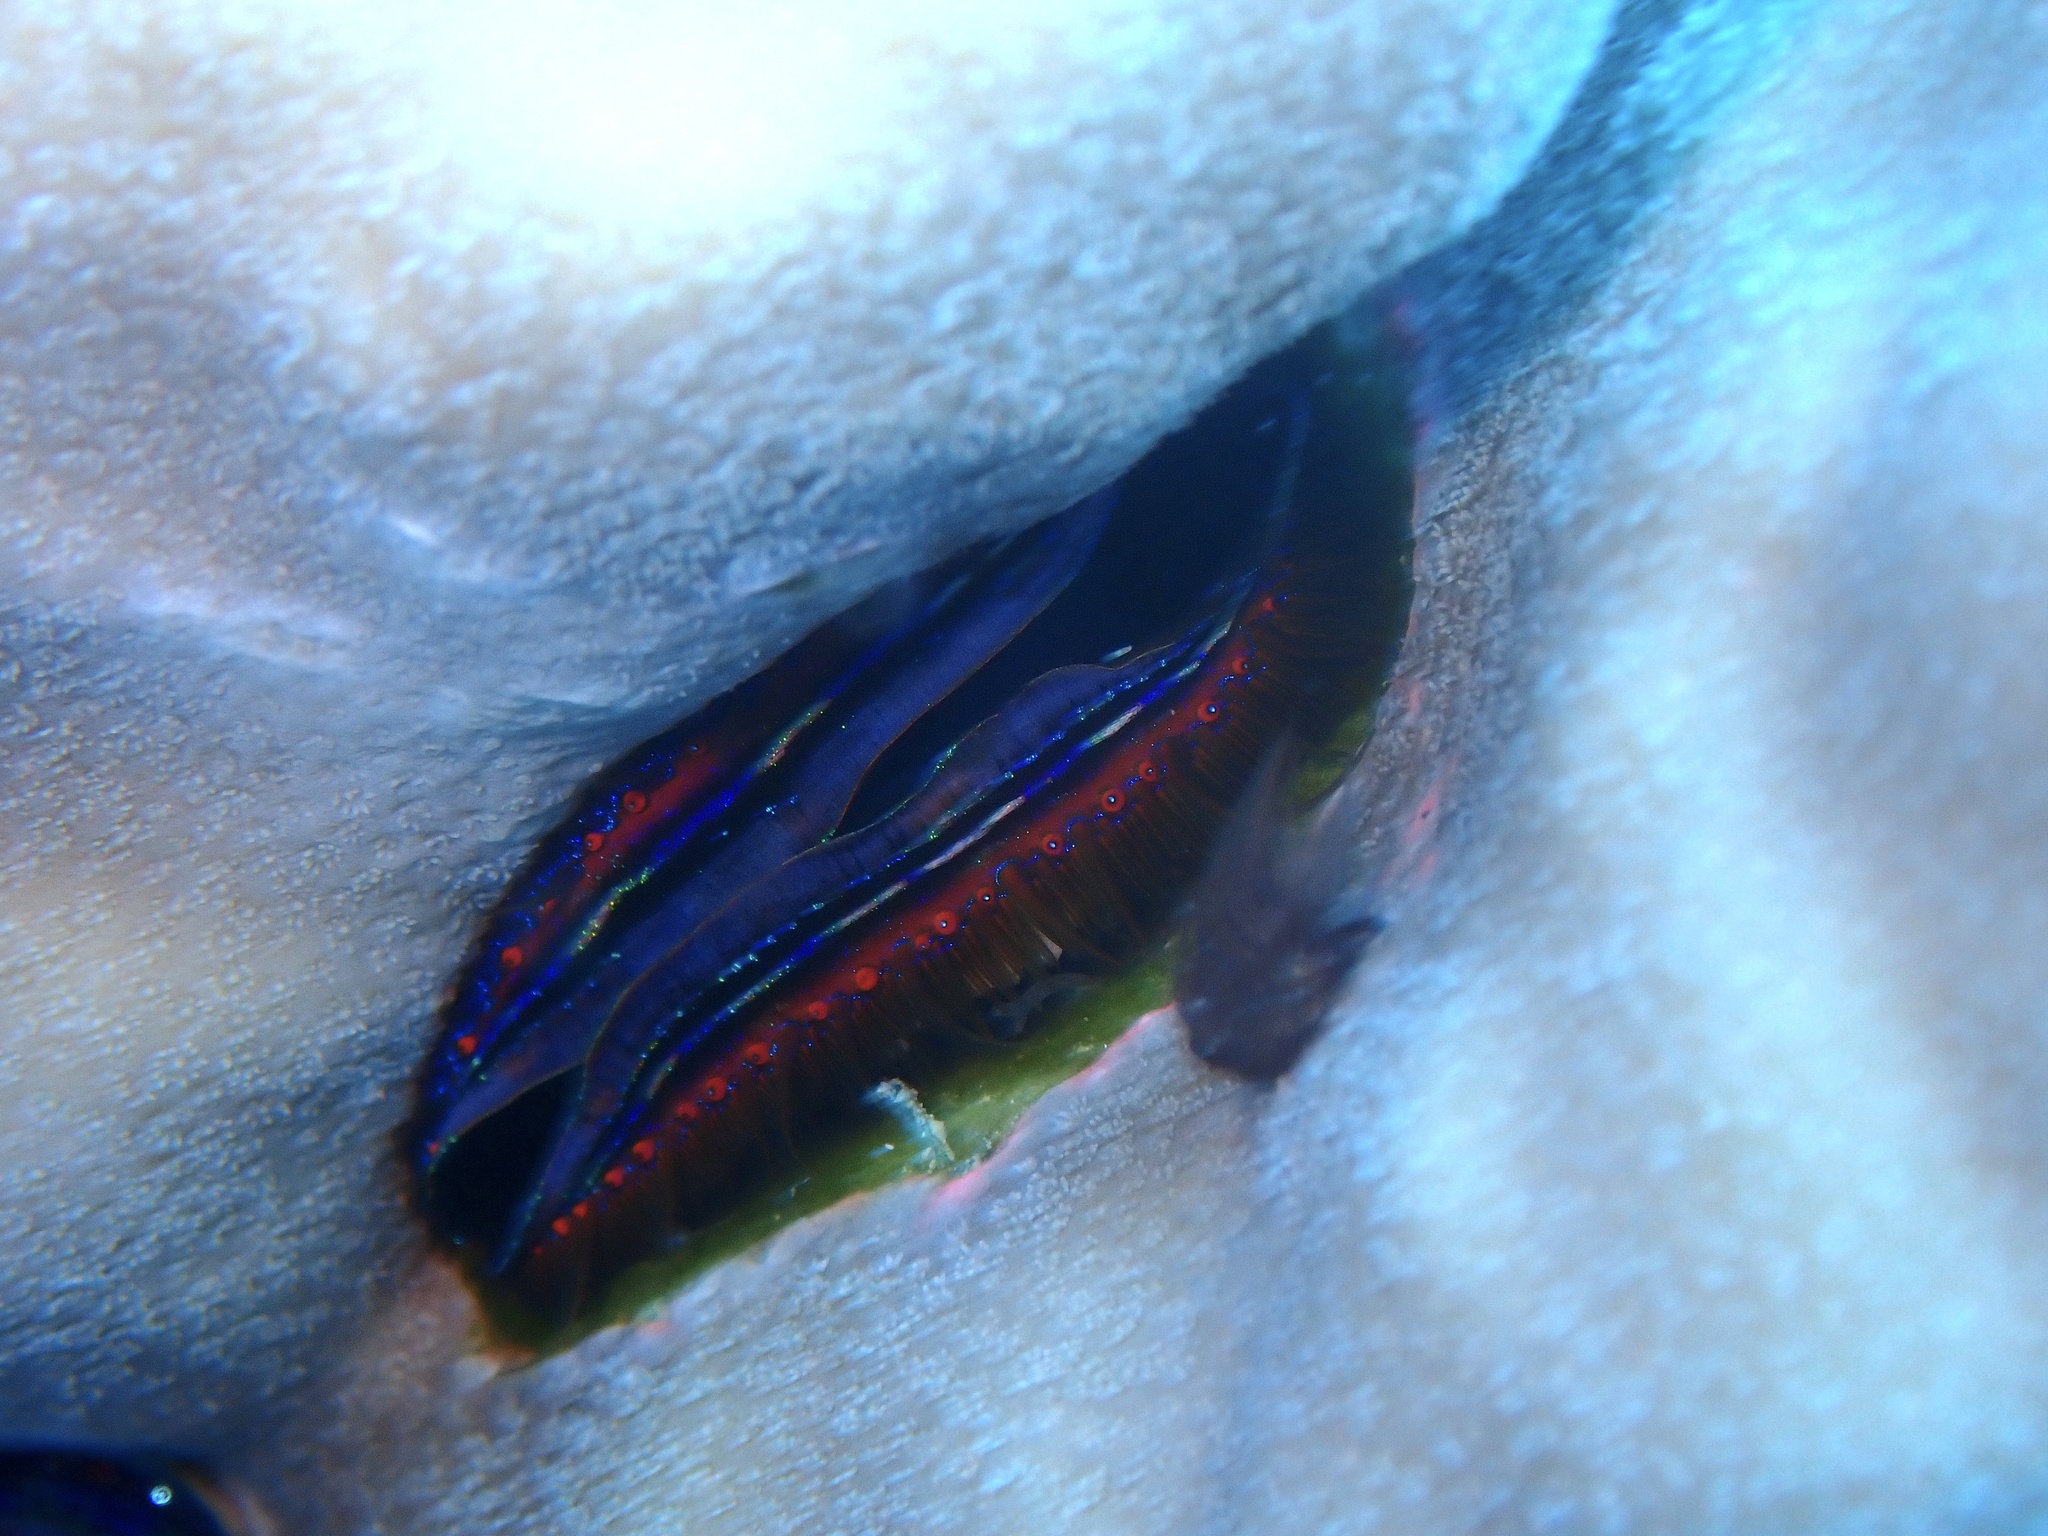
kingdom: Animalia
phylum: Mollusca
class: Bivalvia
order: Pectinida
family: Pectinidae
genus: Pedum
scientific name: Pedum spondyloideum
